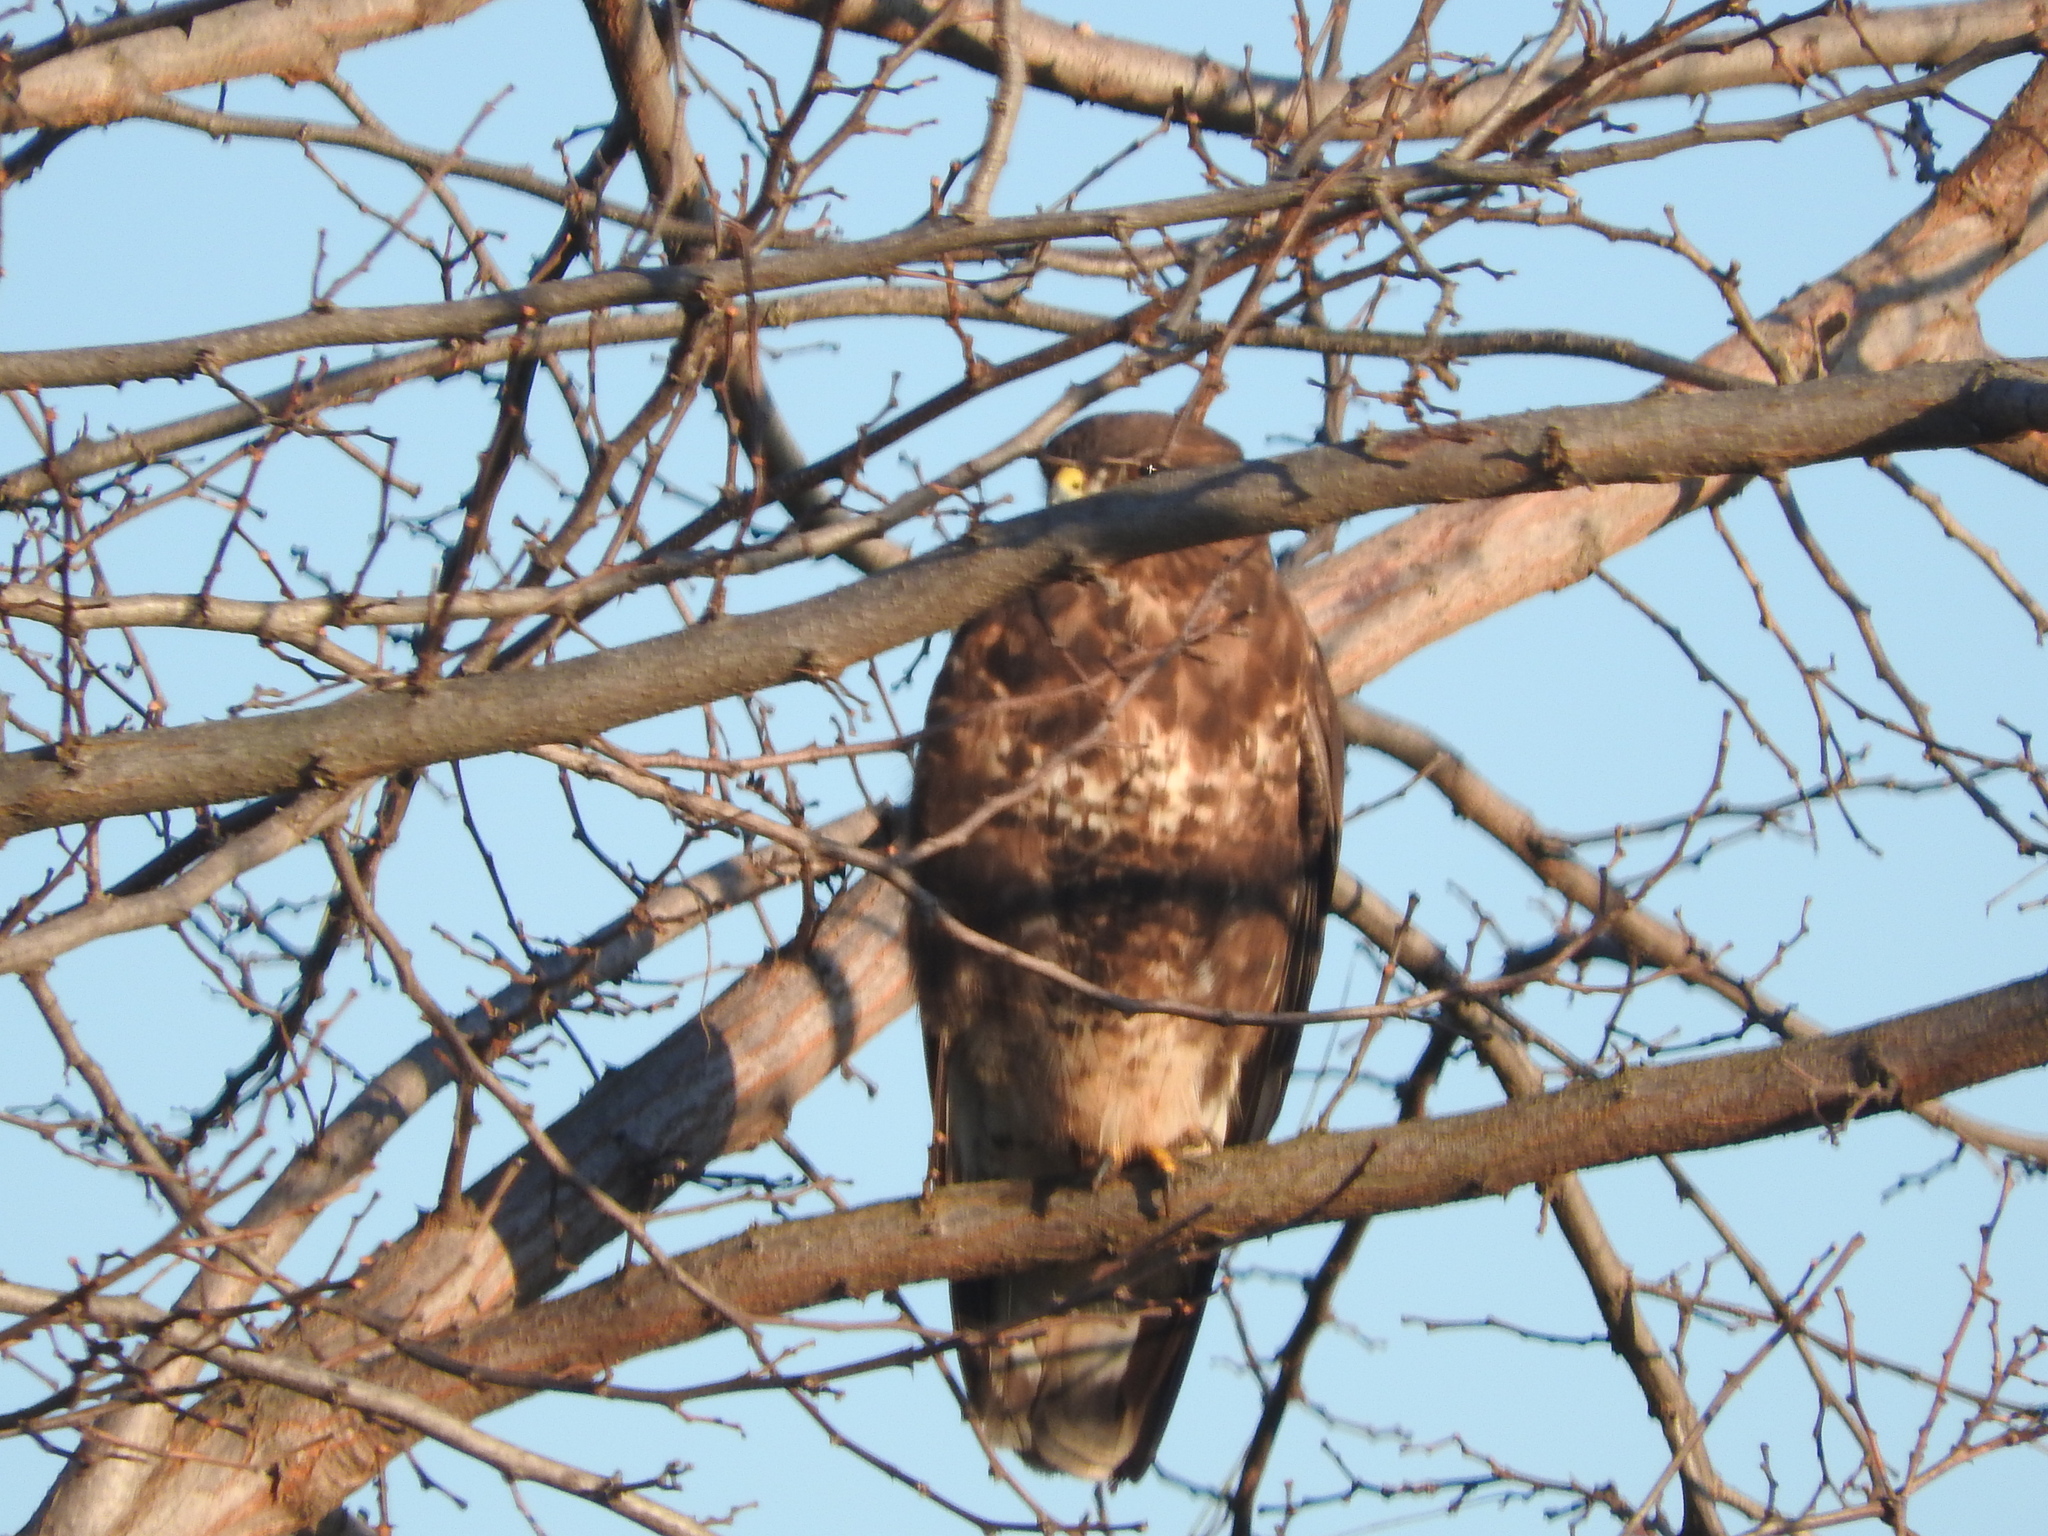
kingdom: Animalia
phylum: Chordata
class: Aves
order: Accipitriformes
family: Accipitridae
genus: Buteo
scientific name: Buteo buteo
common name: Common buzzard
